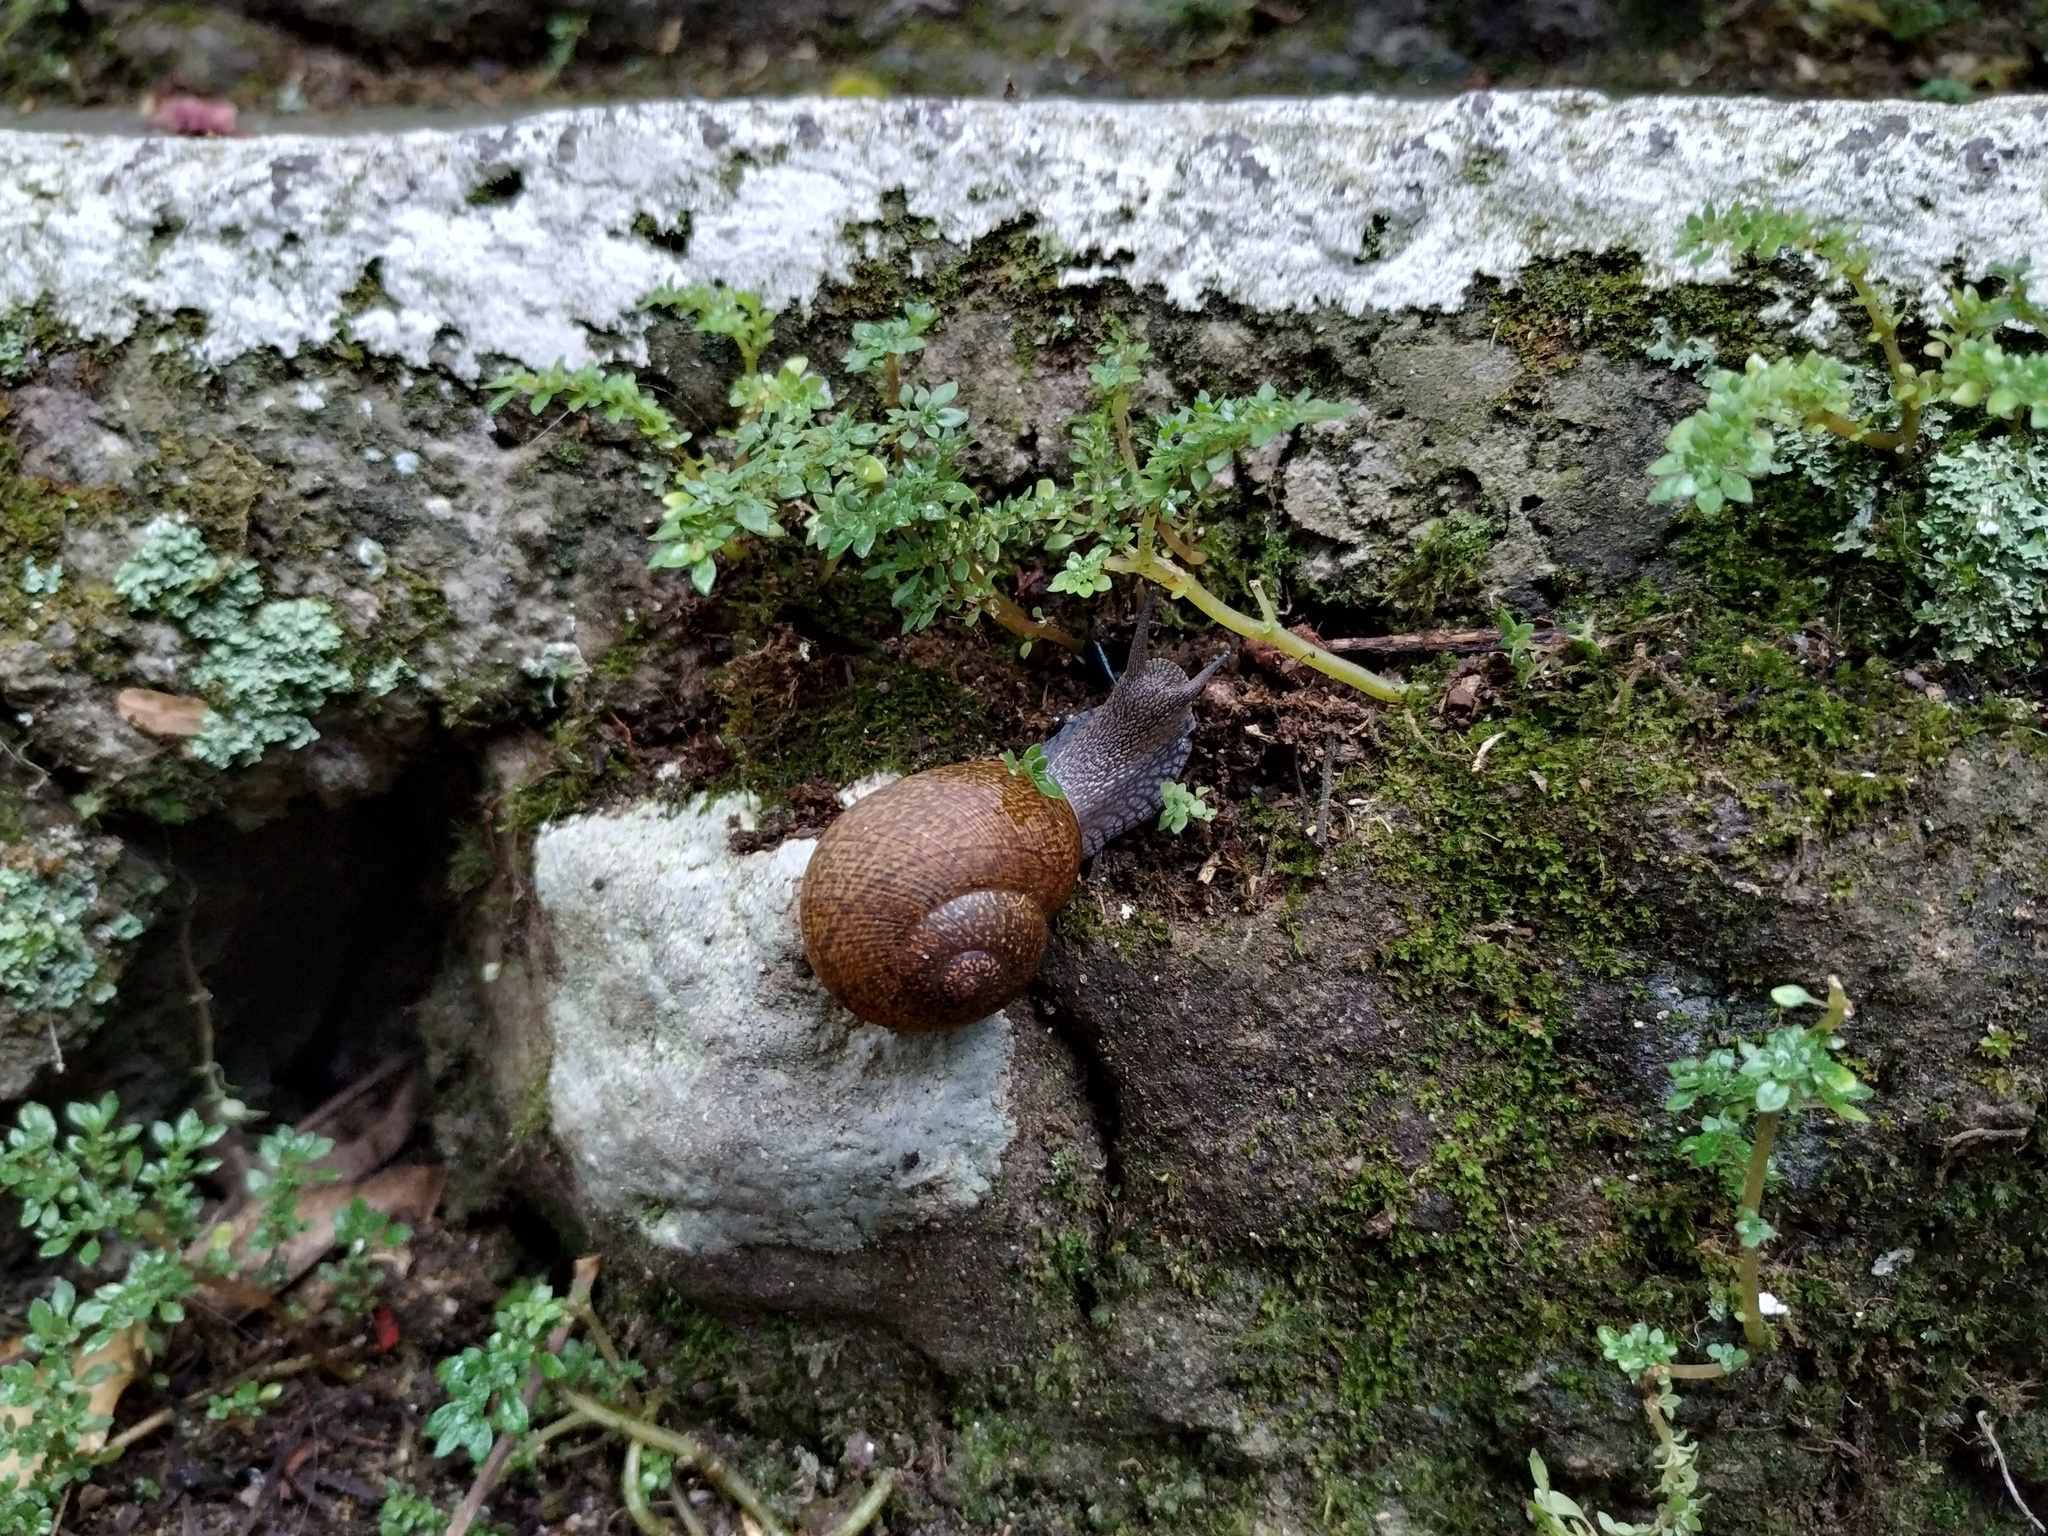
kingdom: Animalia
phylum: Mollusca
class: Gastropoda
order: Stylommatophora
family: Zachrysiidae
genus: Zachrysia
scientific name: Zachrysia provisoria
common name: Garden zachrysia
